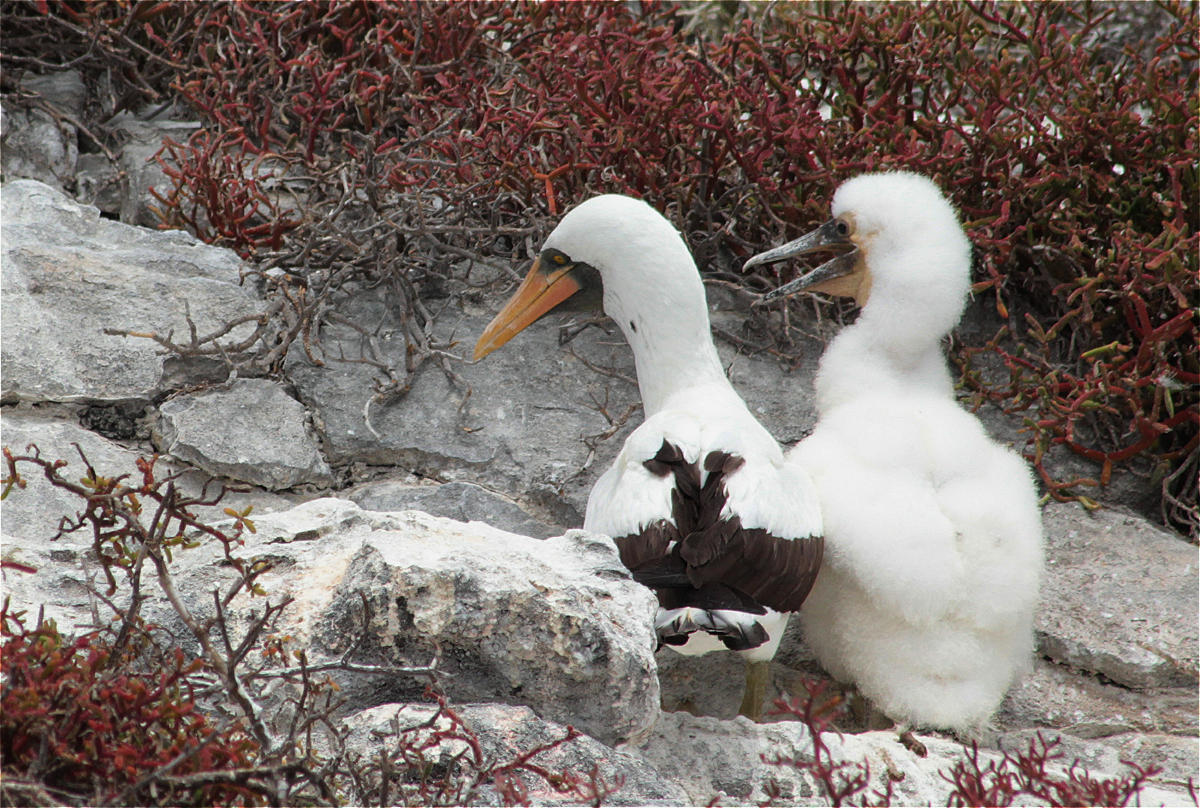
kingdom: Animalia
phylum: Chordata
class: Aves
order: Suliformes
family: Sulidae
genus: Sula
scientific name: Sula granti
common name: Nazca booby
